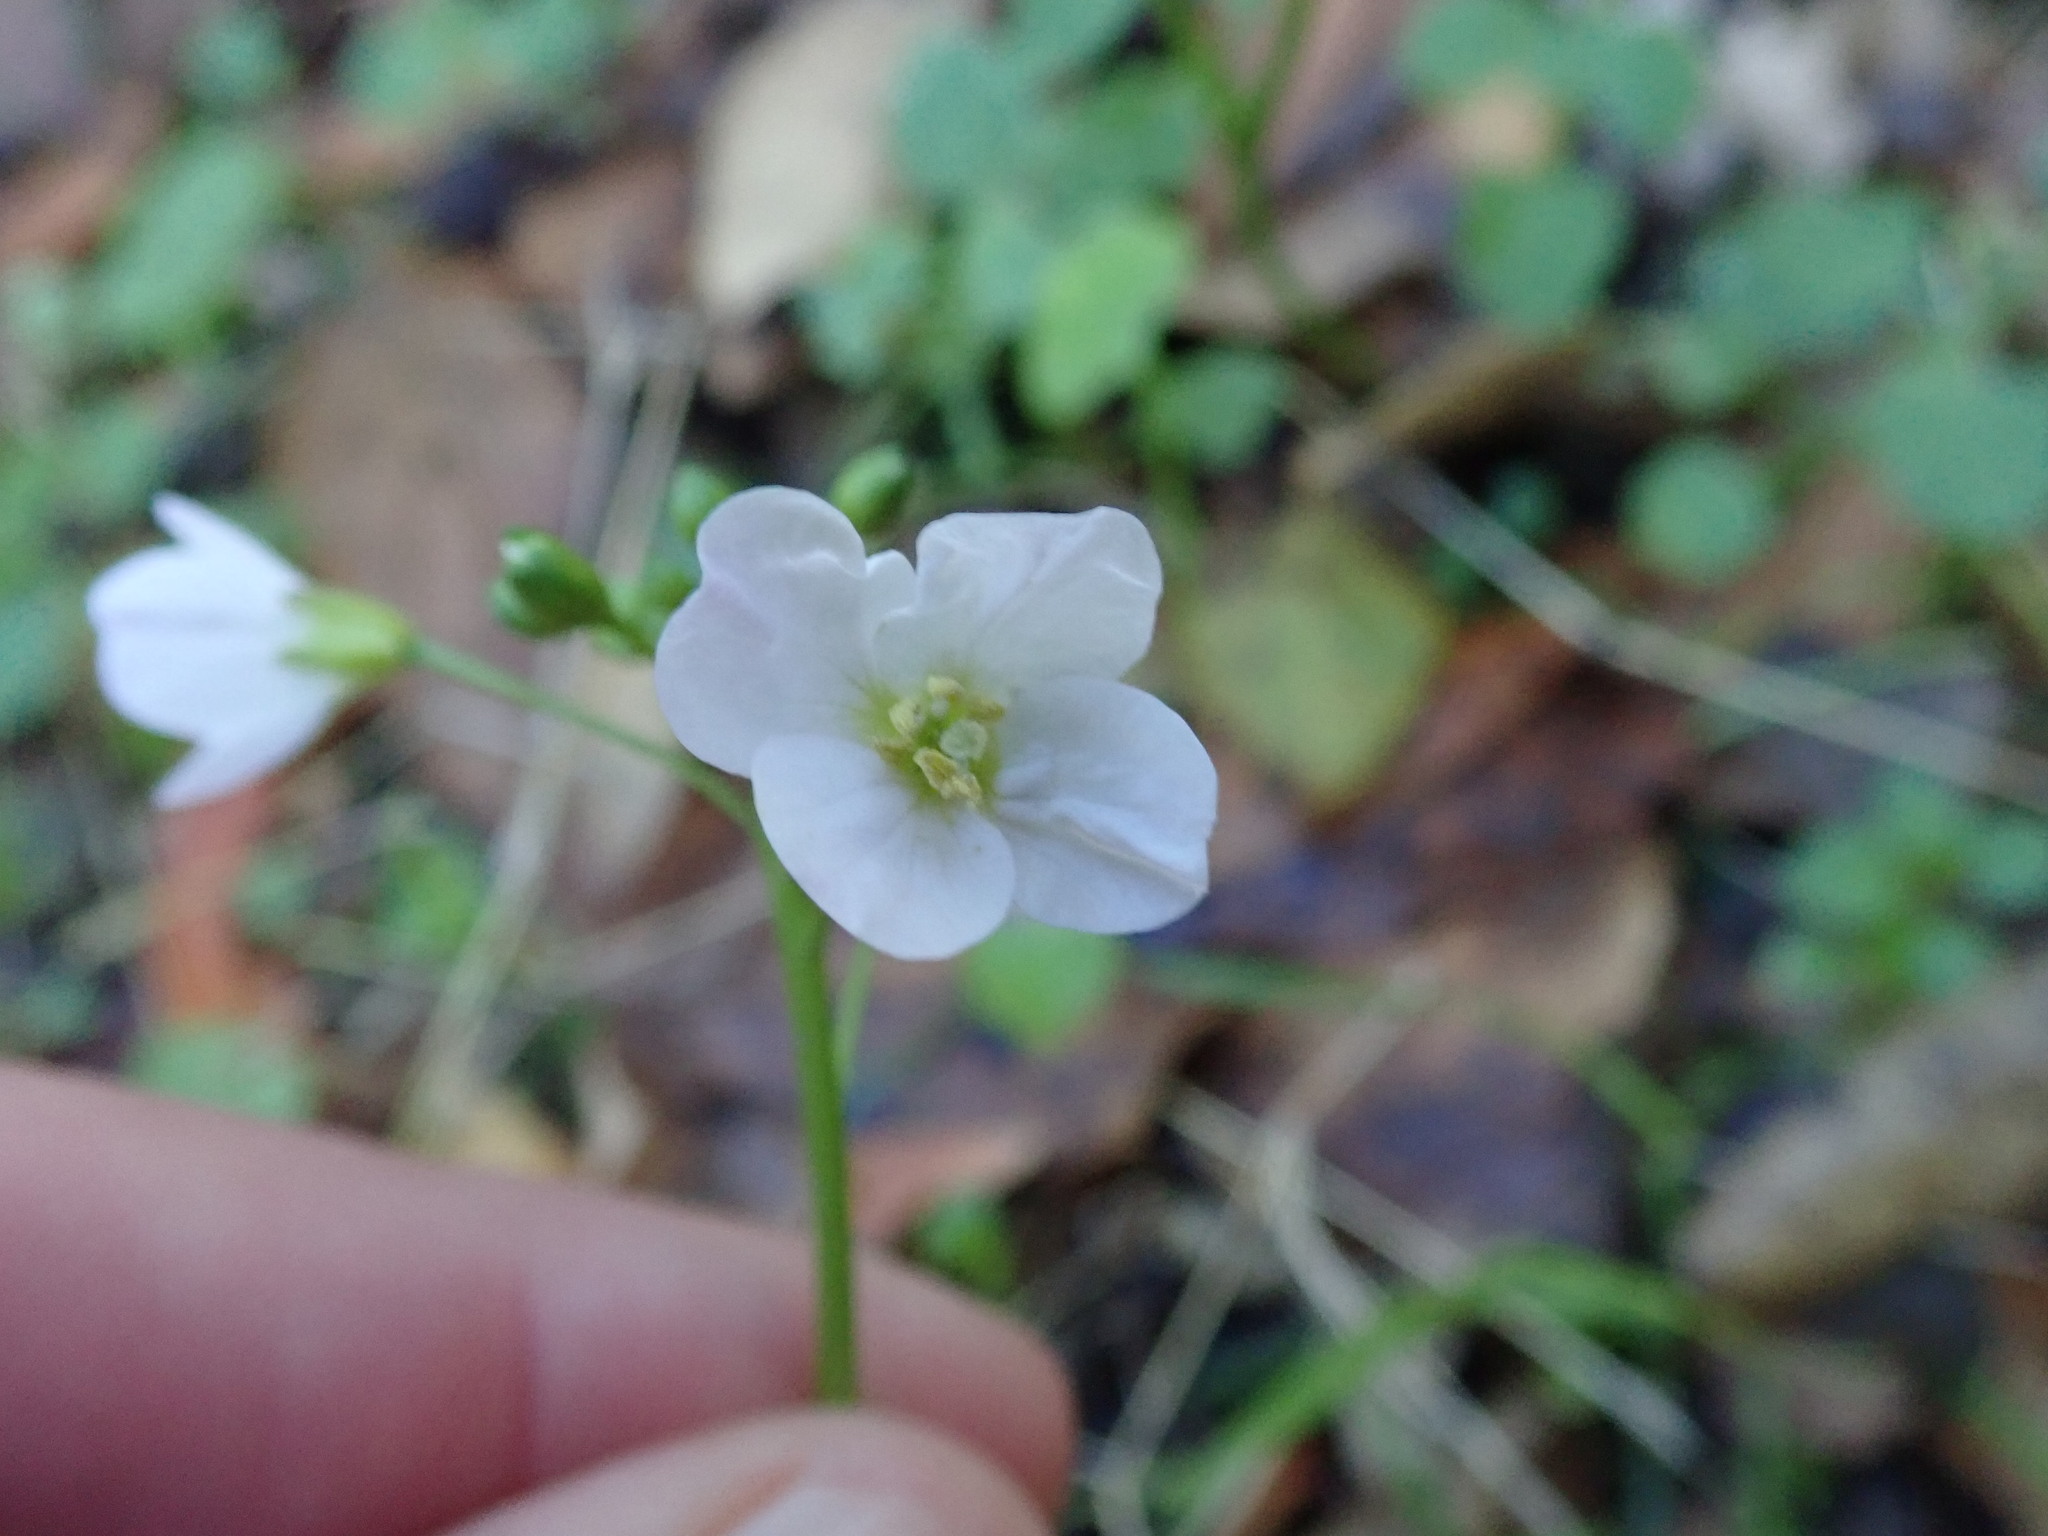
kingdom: Plantae
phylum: Tracheophyta
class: Magnoliopsida
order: Brassicales
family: Brassicaceae
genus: Cardamine
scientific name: Cardamine californica
